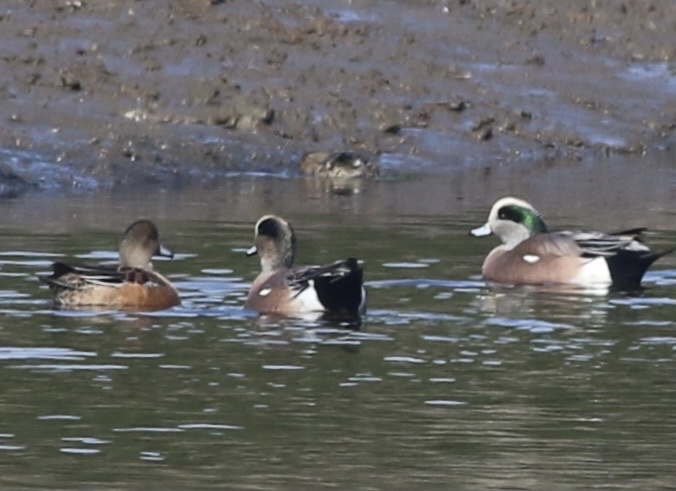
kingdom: Animalia
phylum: Chordata
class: Aves
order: Anseriformes
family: Anatidae
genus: Mareca
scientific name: Mareca americana
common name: American wigeon
